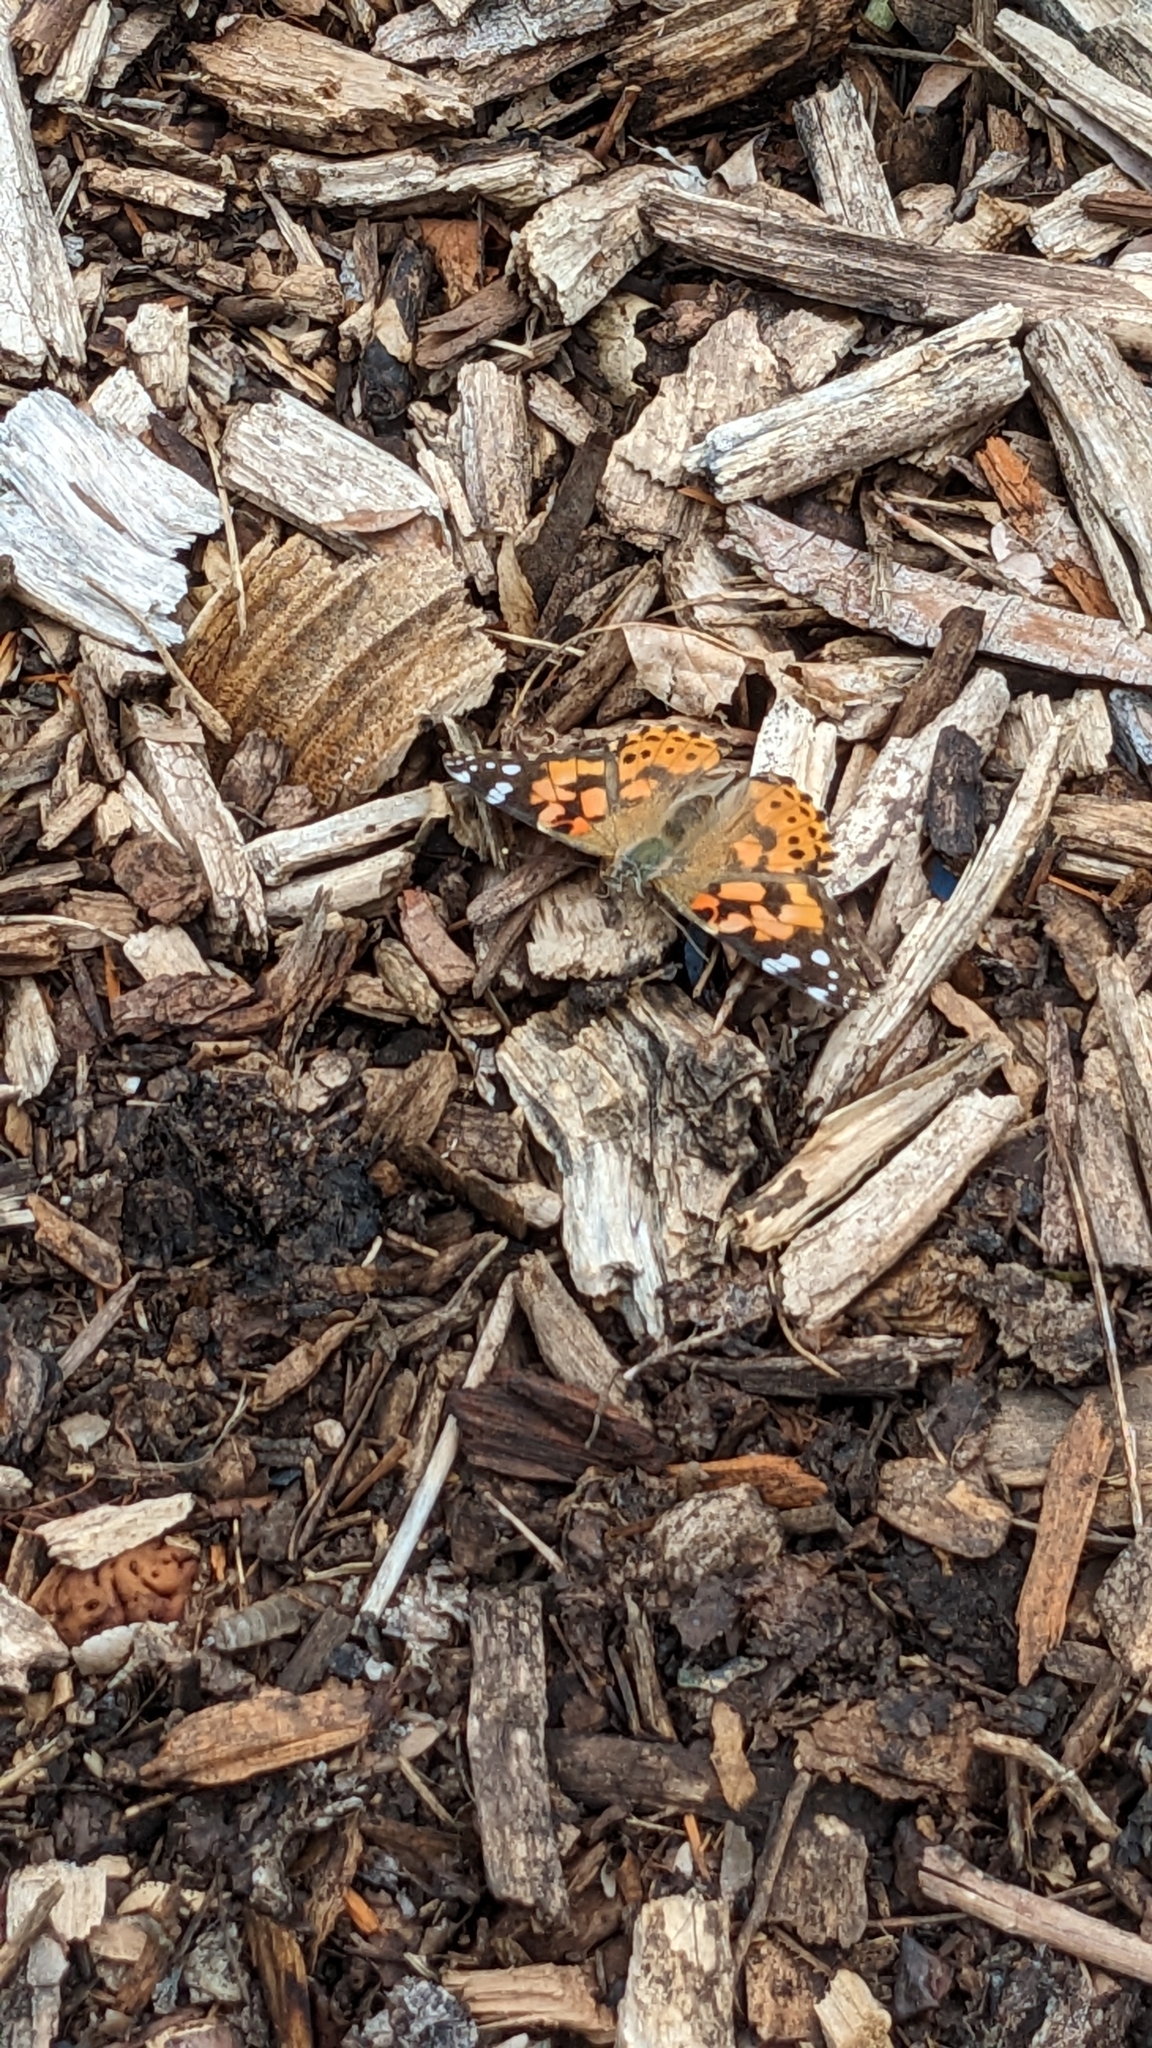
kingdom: Animalia
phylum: Arthropoda
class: Insecta
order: Lepidoptera
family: Nymphalidae
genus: Vanessa
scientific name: Vanessa cardui
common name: Painted lady
